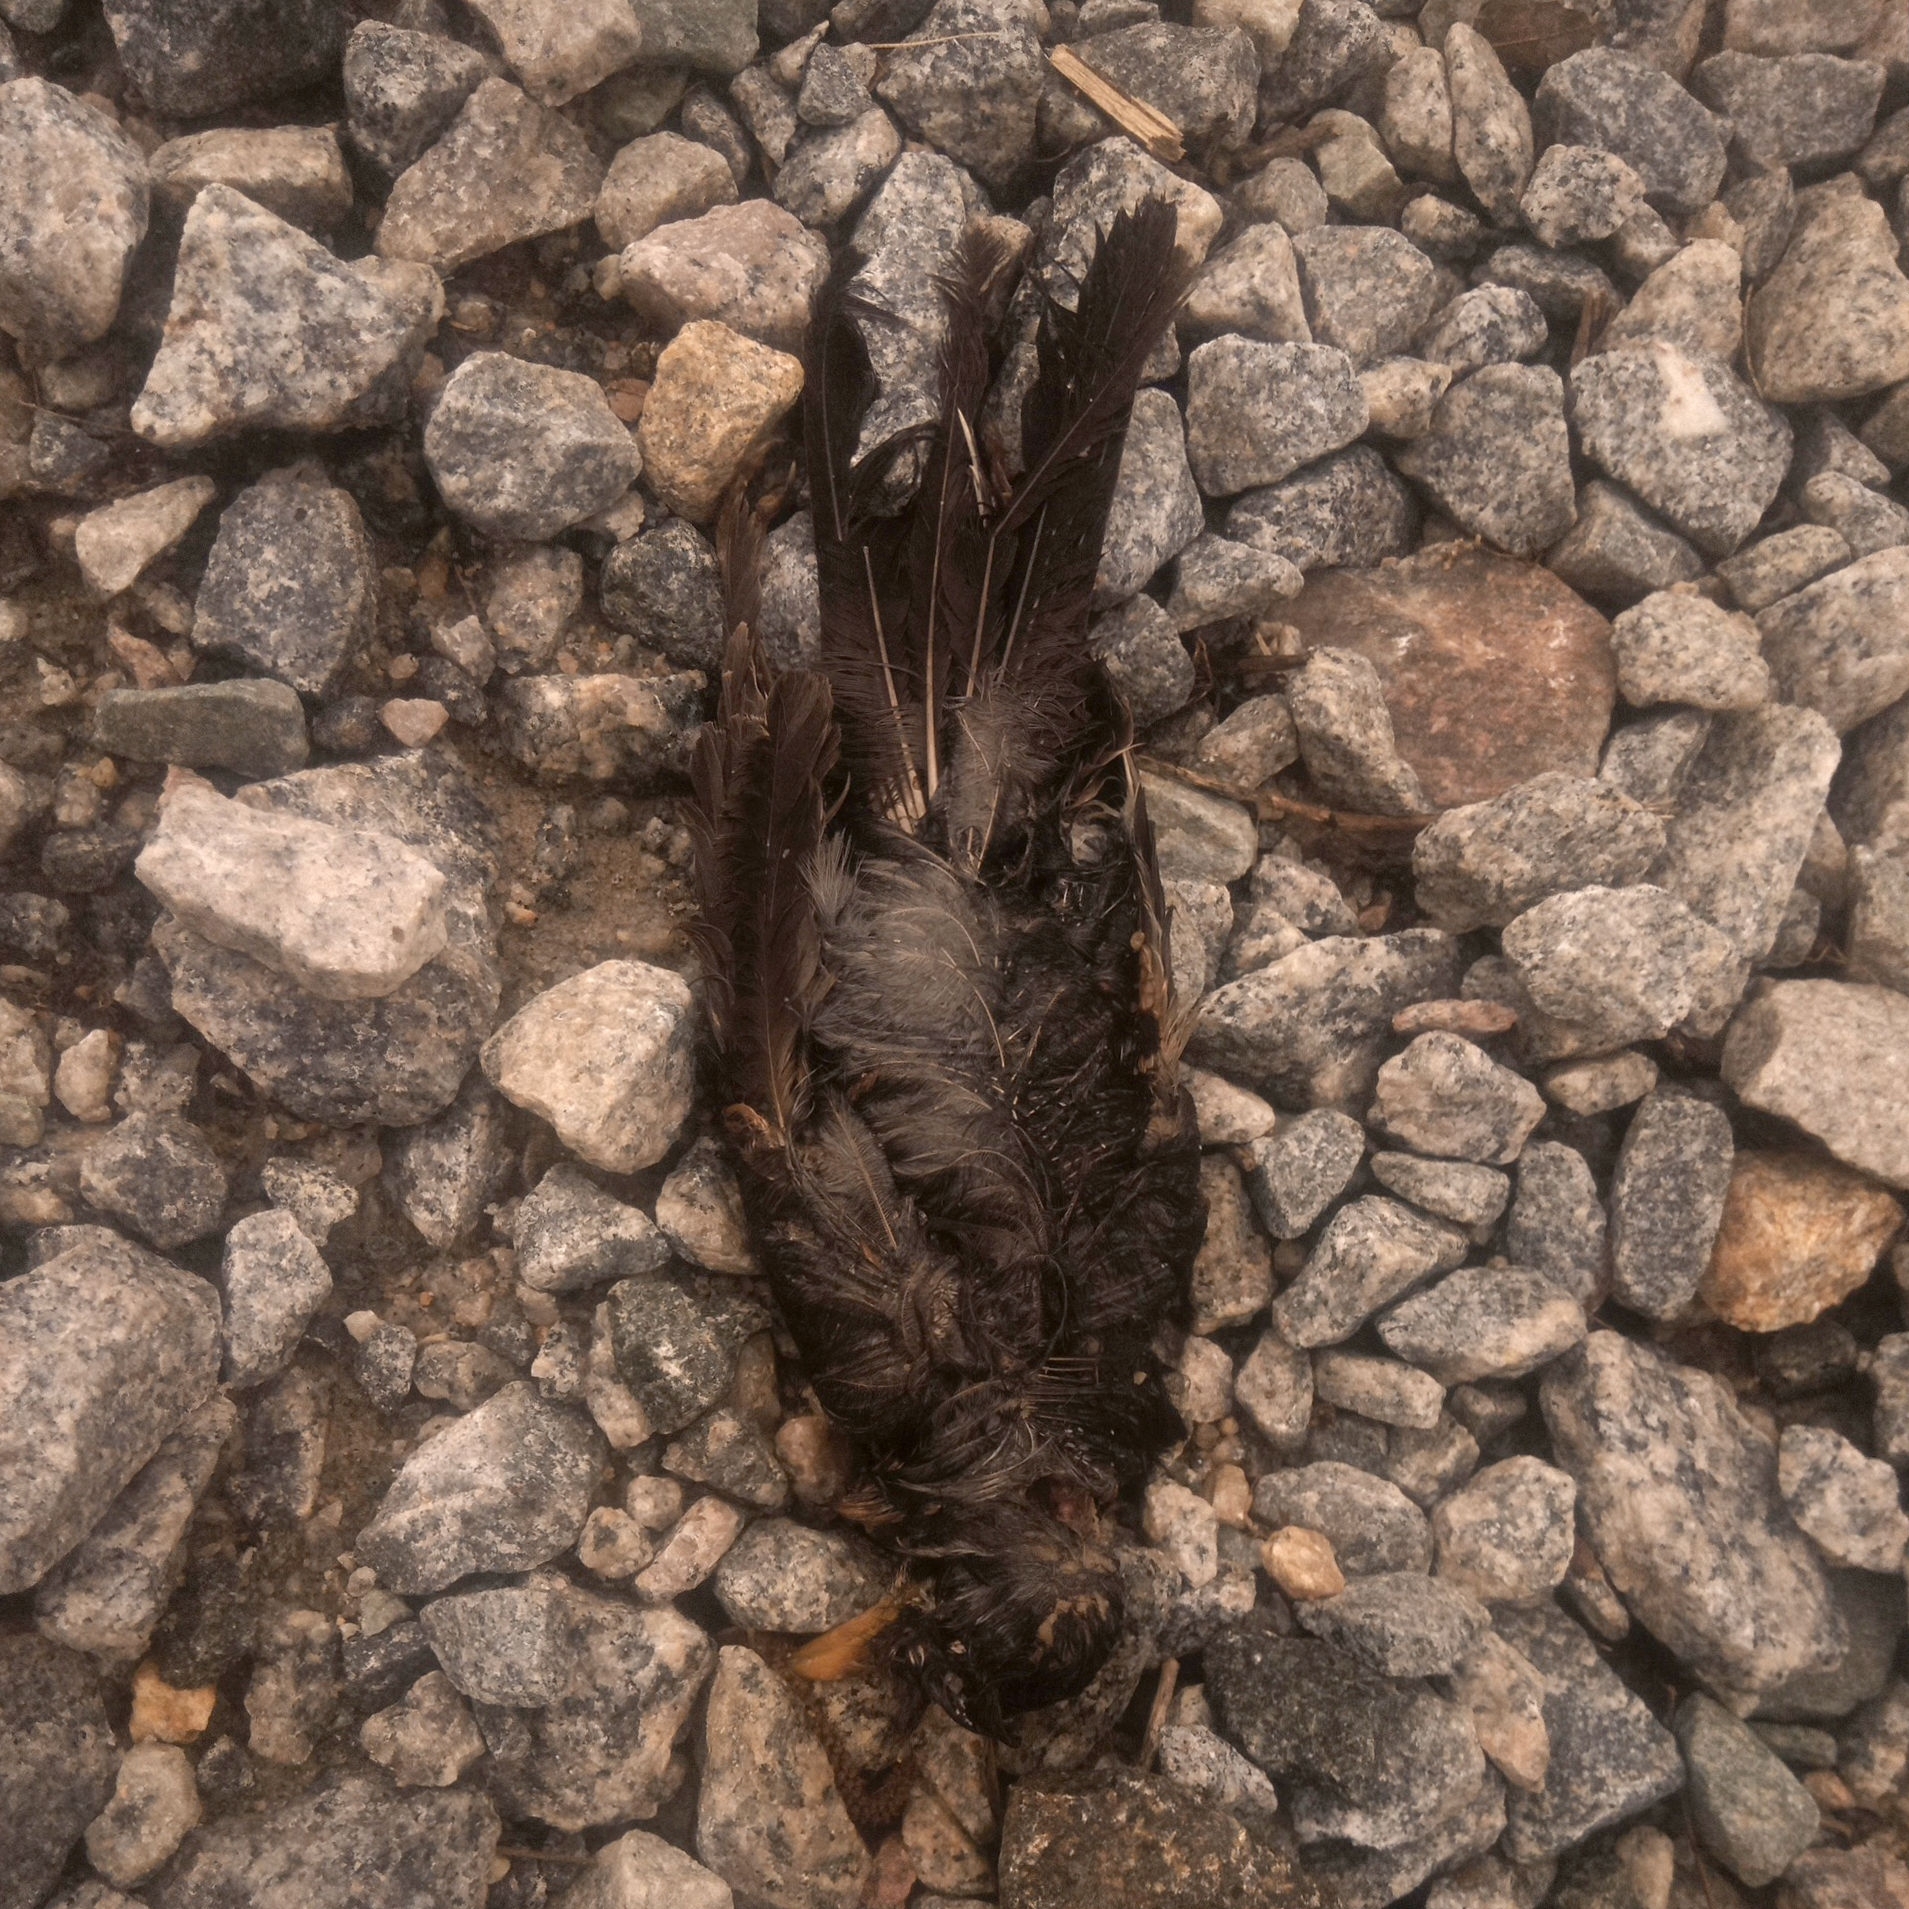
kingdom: Animalia
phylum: Chordata
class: Aves
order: Passeriformes
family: Turdidae
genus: Turdus
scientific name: Turdus migratorius
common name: American robin
